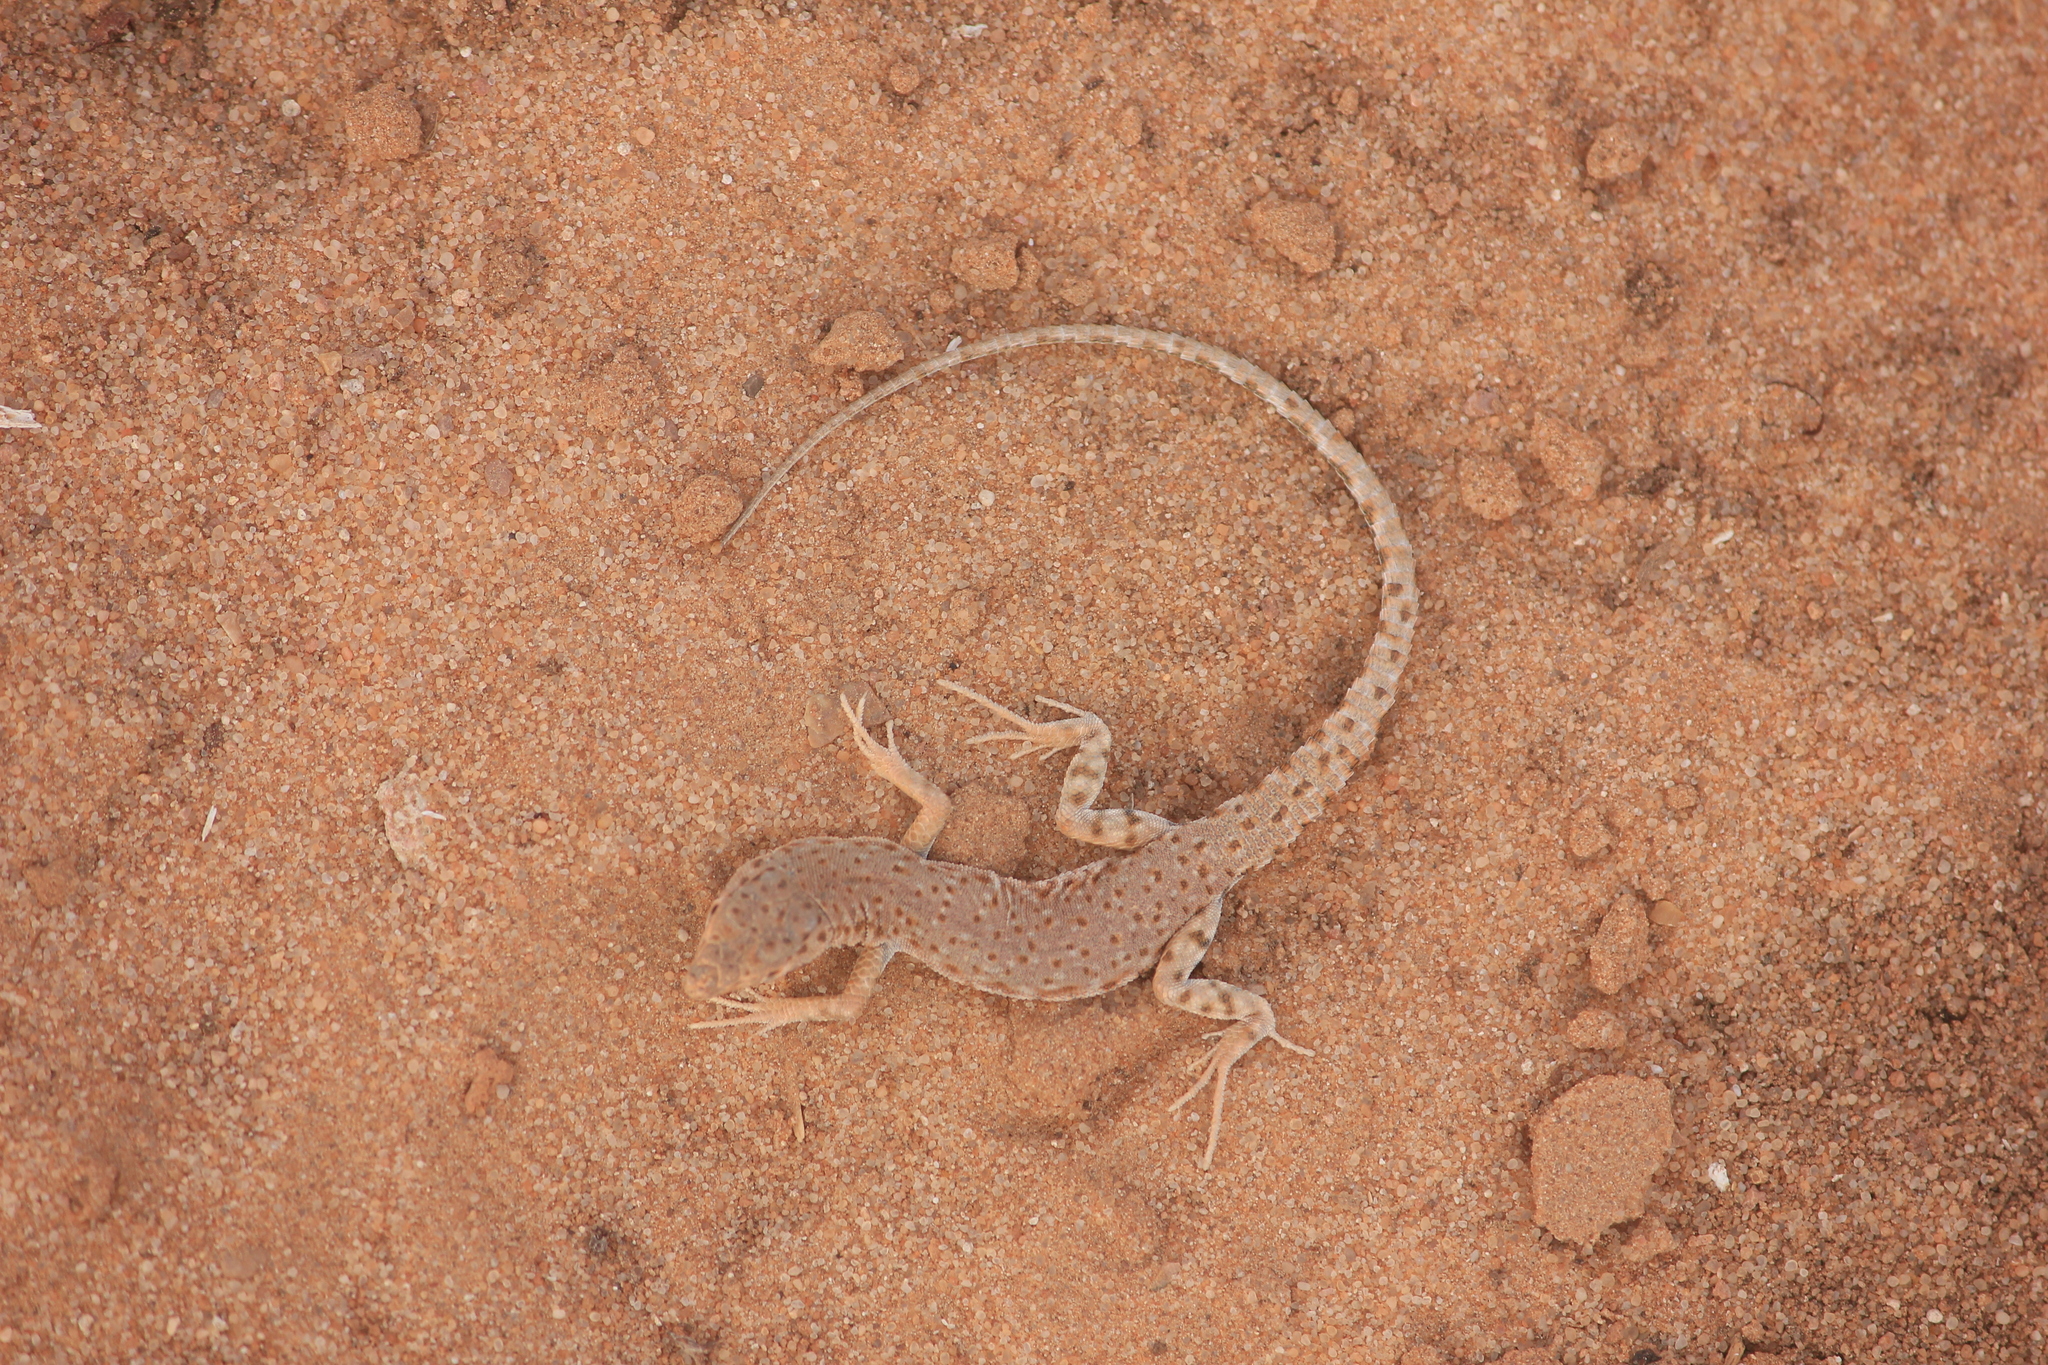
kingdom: Animalia
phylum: Chordata
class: Squamata
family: Lacertidae
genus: Mesalina
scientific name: Mesalina brevirostris
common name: Blanford's short-nosed desert lizard
